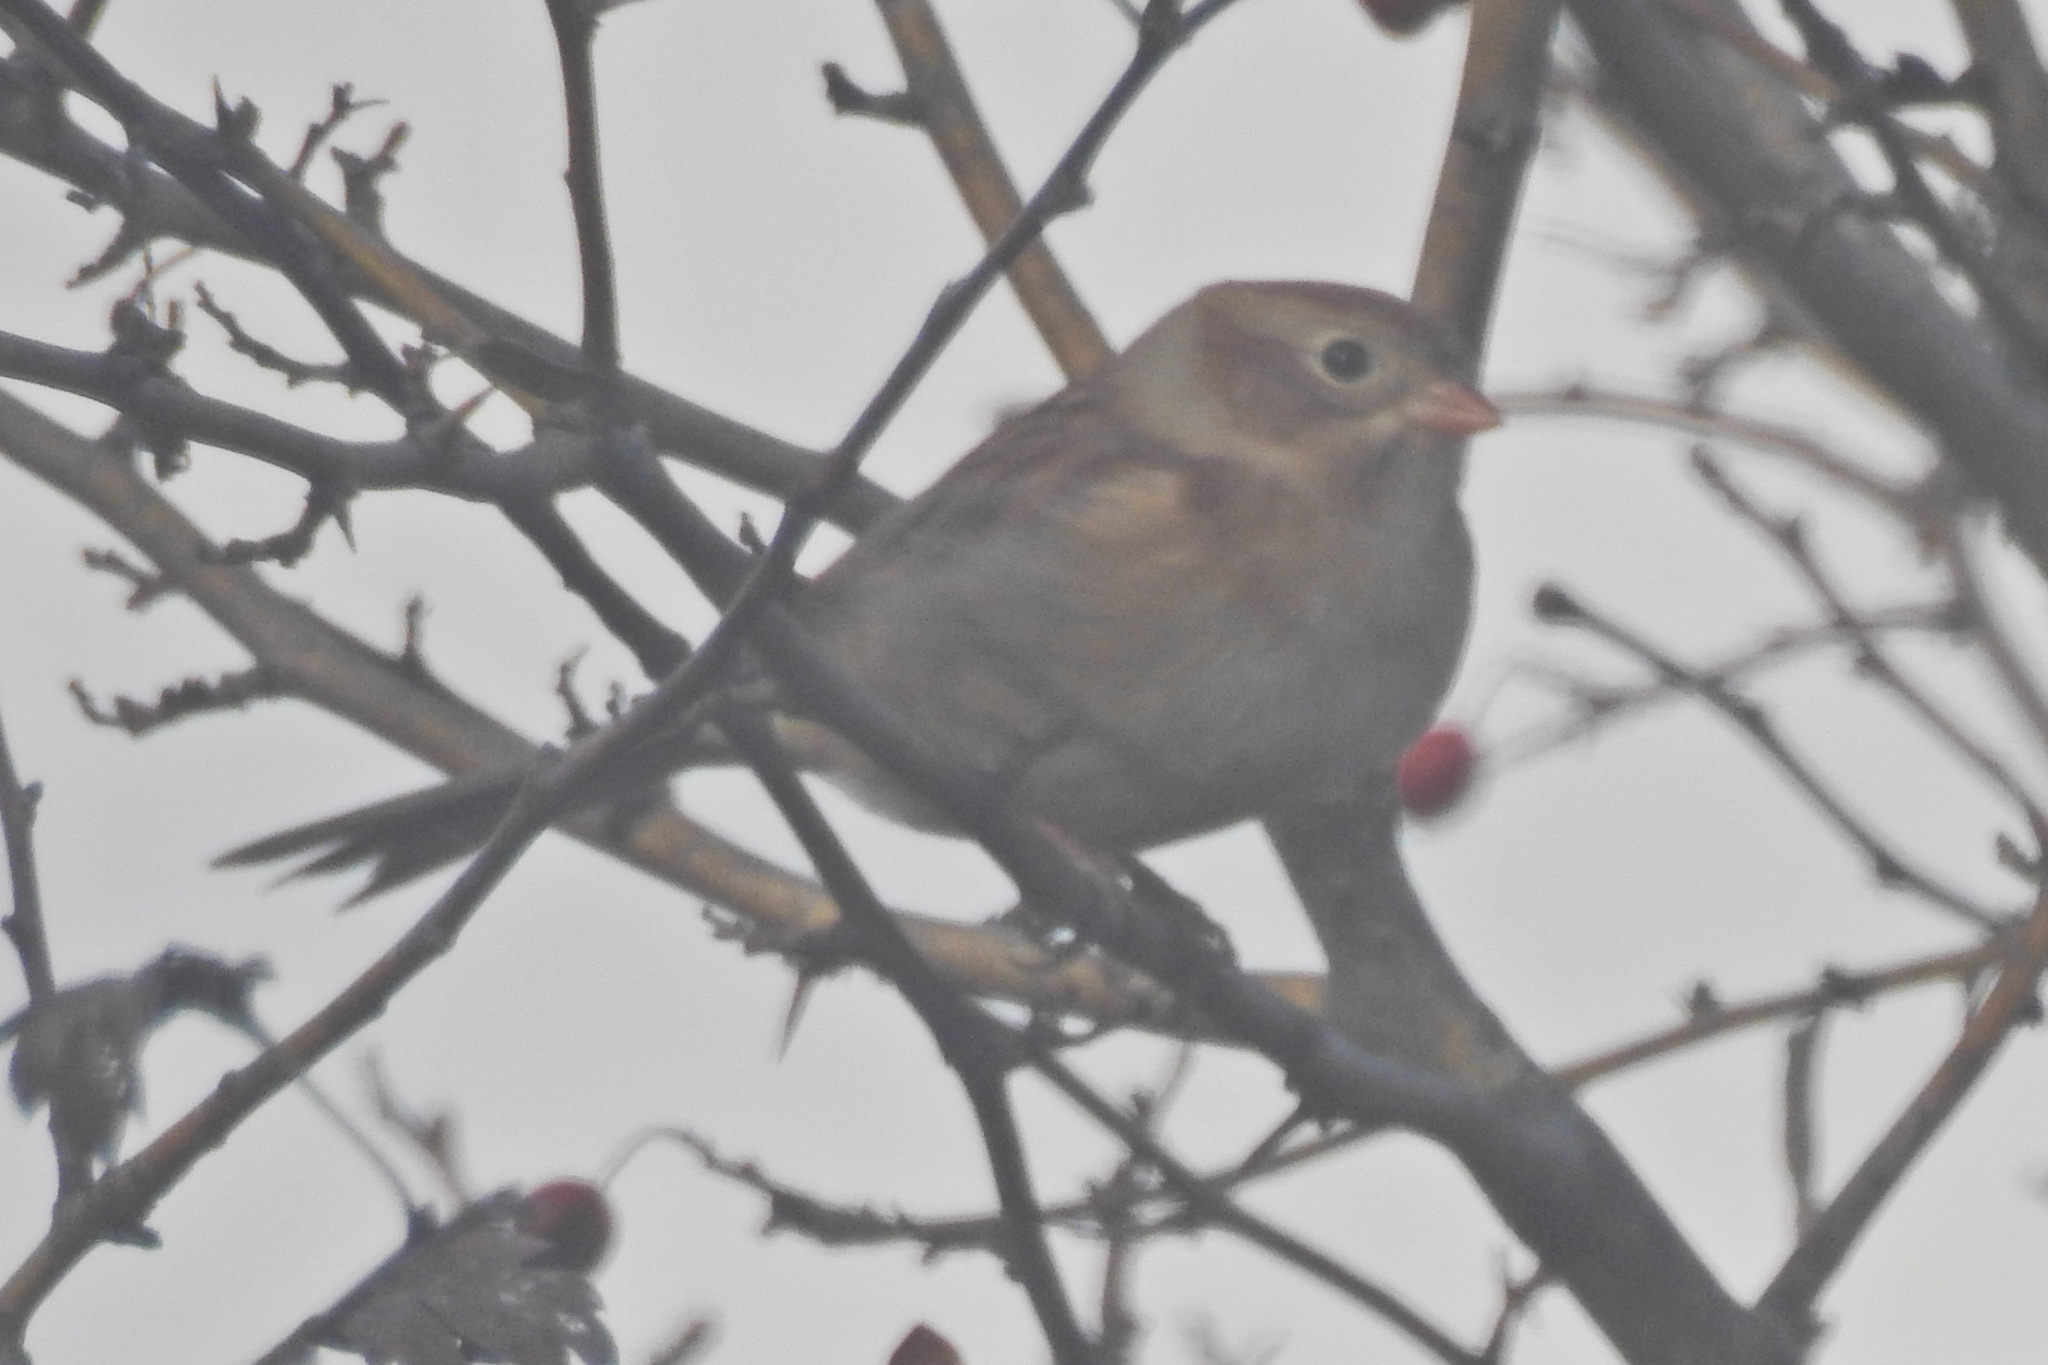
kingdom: Animalia
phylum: Chordata
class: Aves
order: Passeriformes
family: Passerellidae
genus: Spizella
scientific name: Spizella pusilla
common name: Field sparrow
